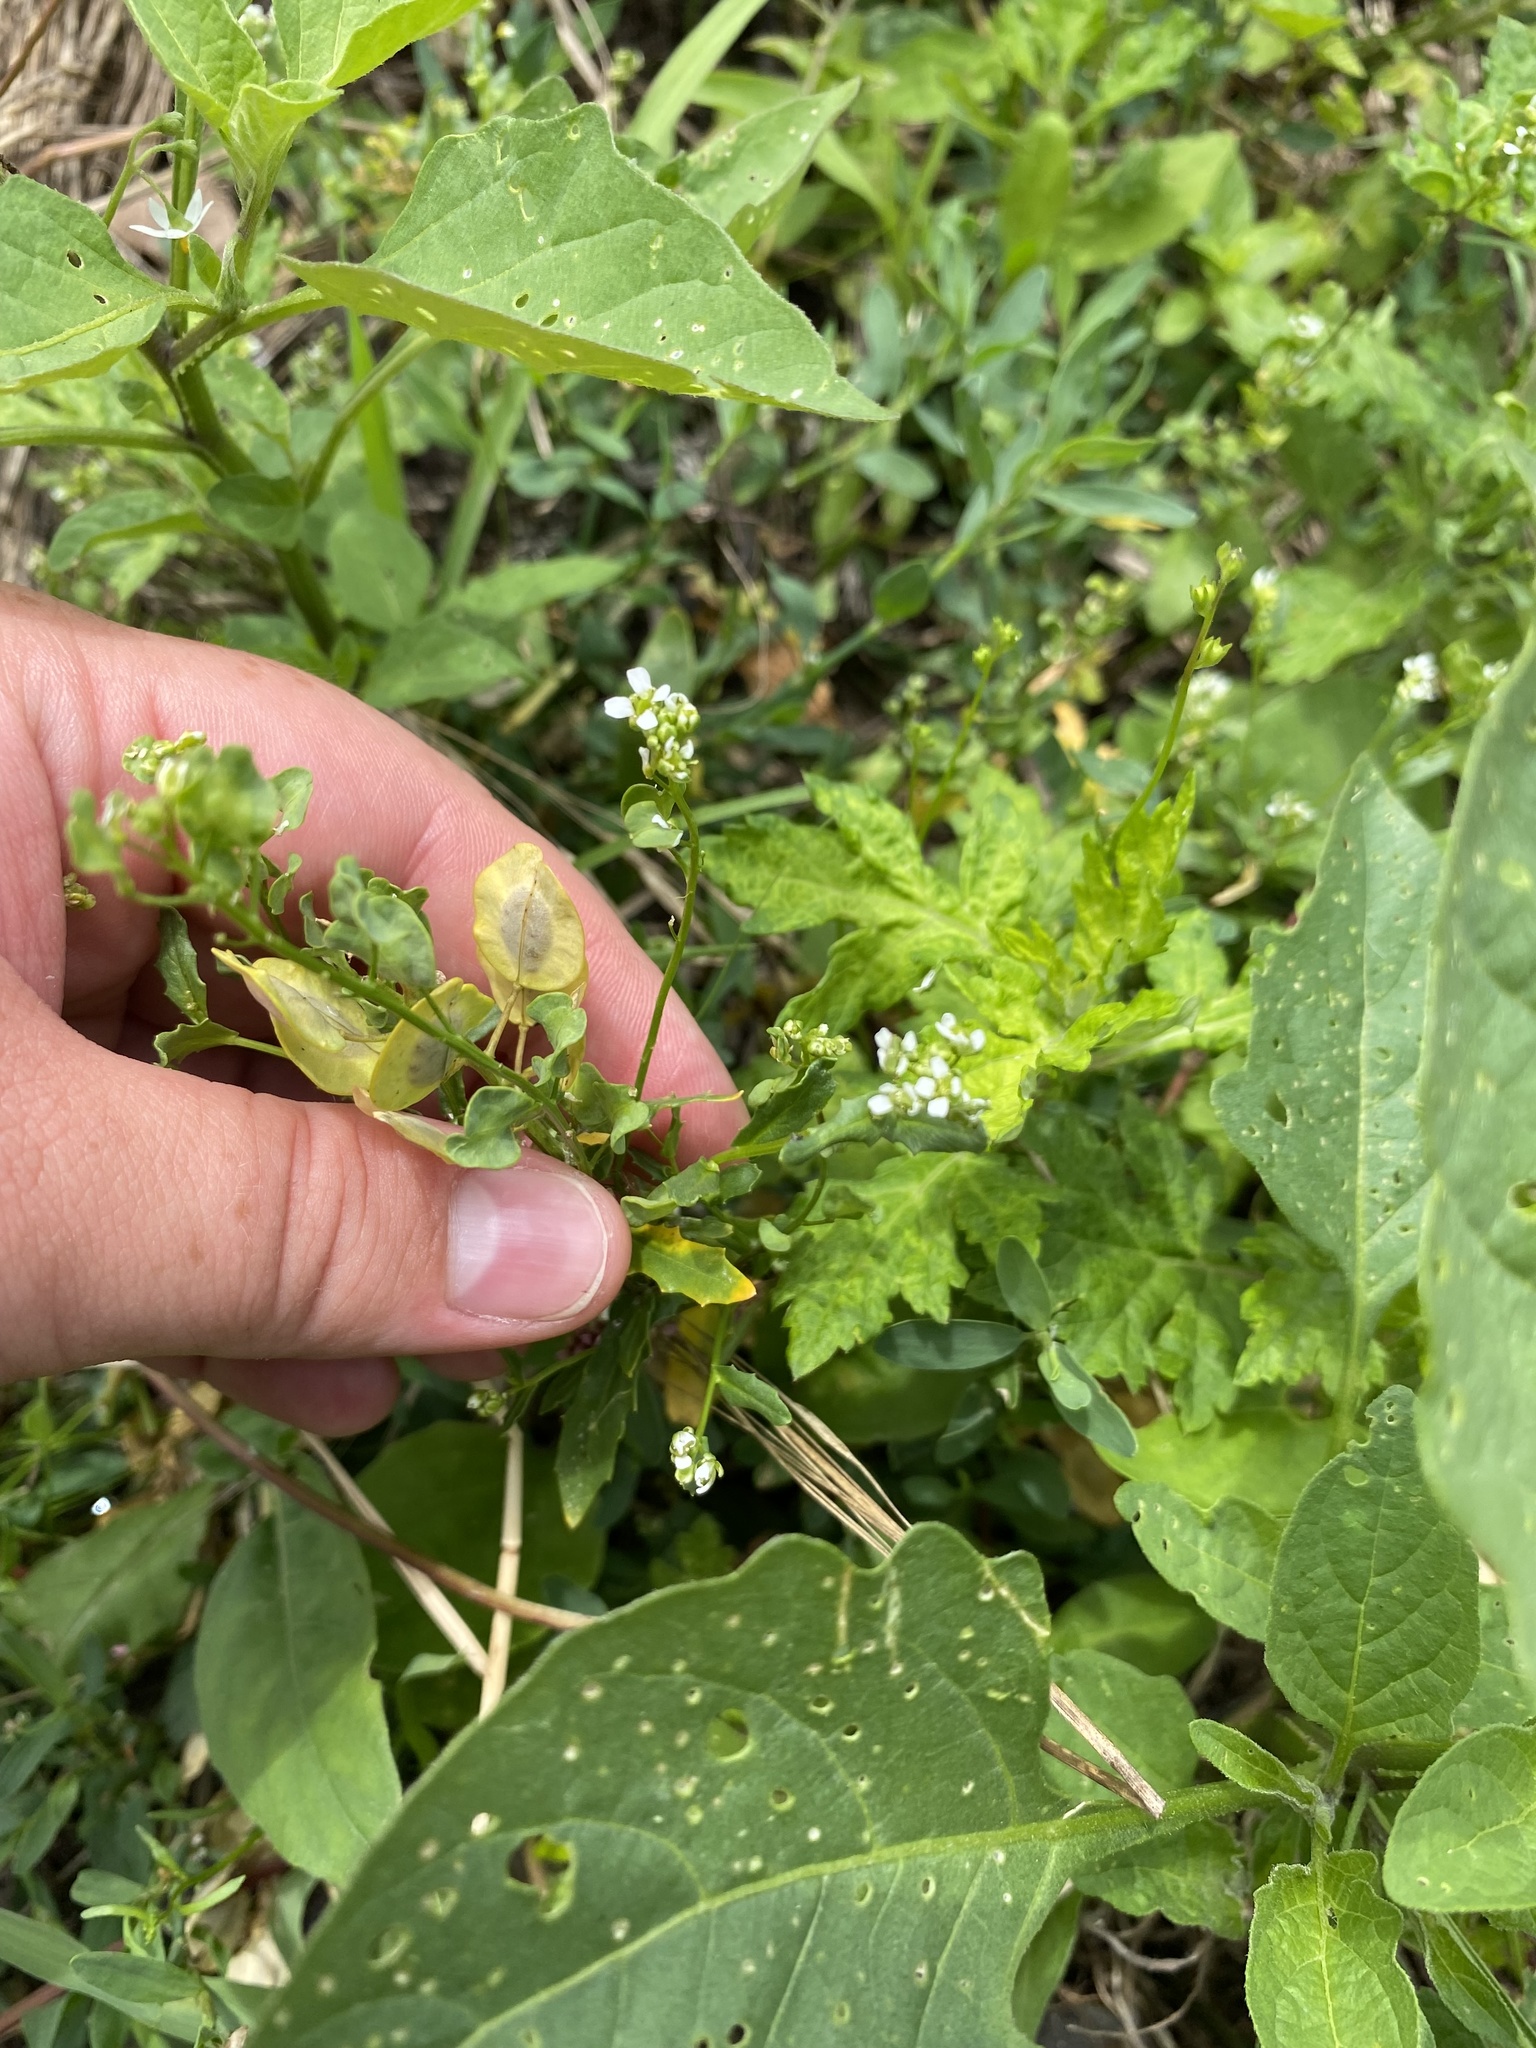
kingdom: Plantae
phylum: Tracheophyta
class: Magnoliopsida
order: Brassicales
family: Brassicaceae
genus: Thlaspi
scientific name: Thlaspi arvense
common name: Field pennycress
